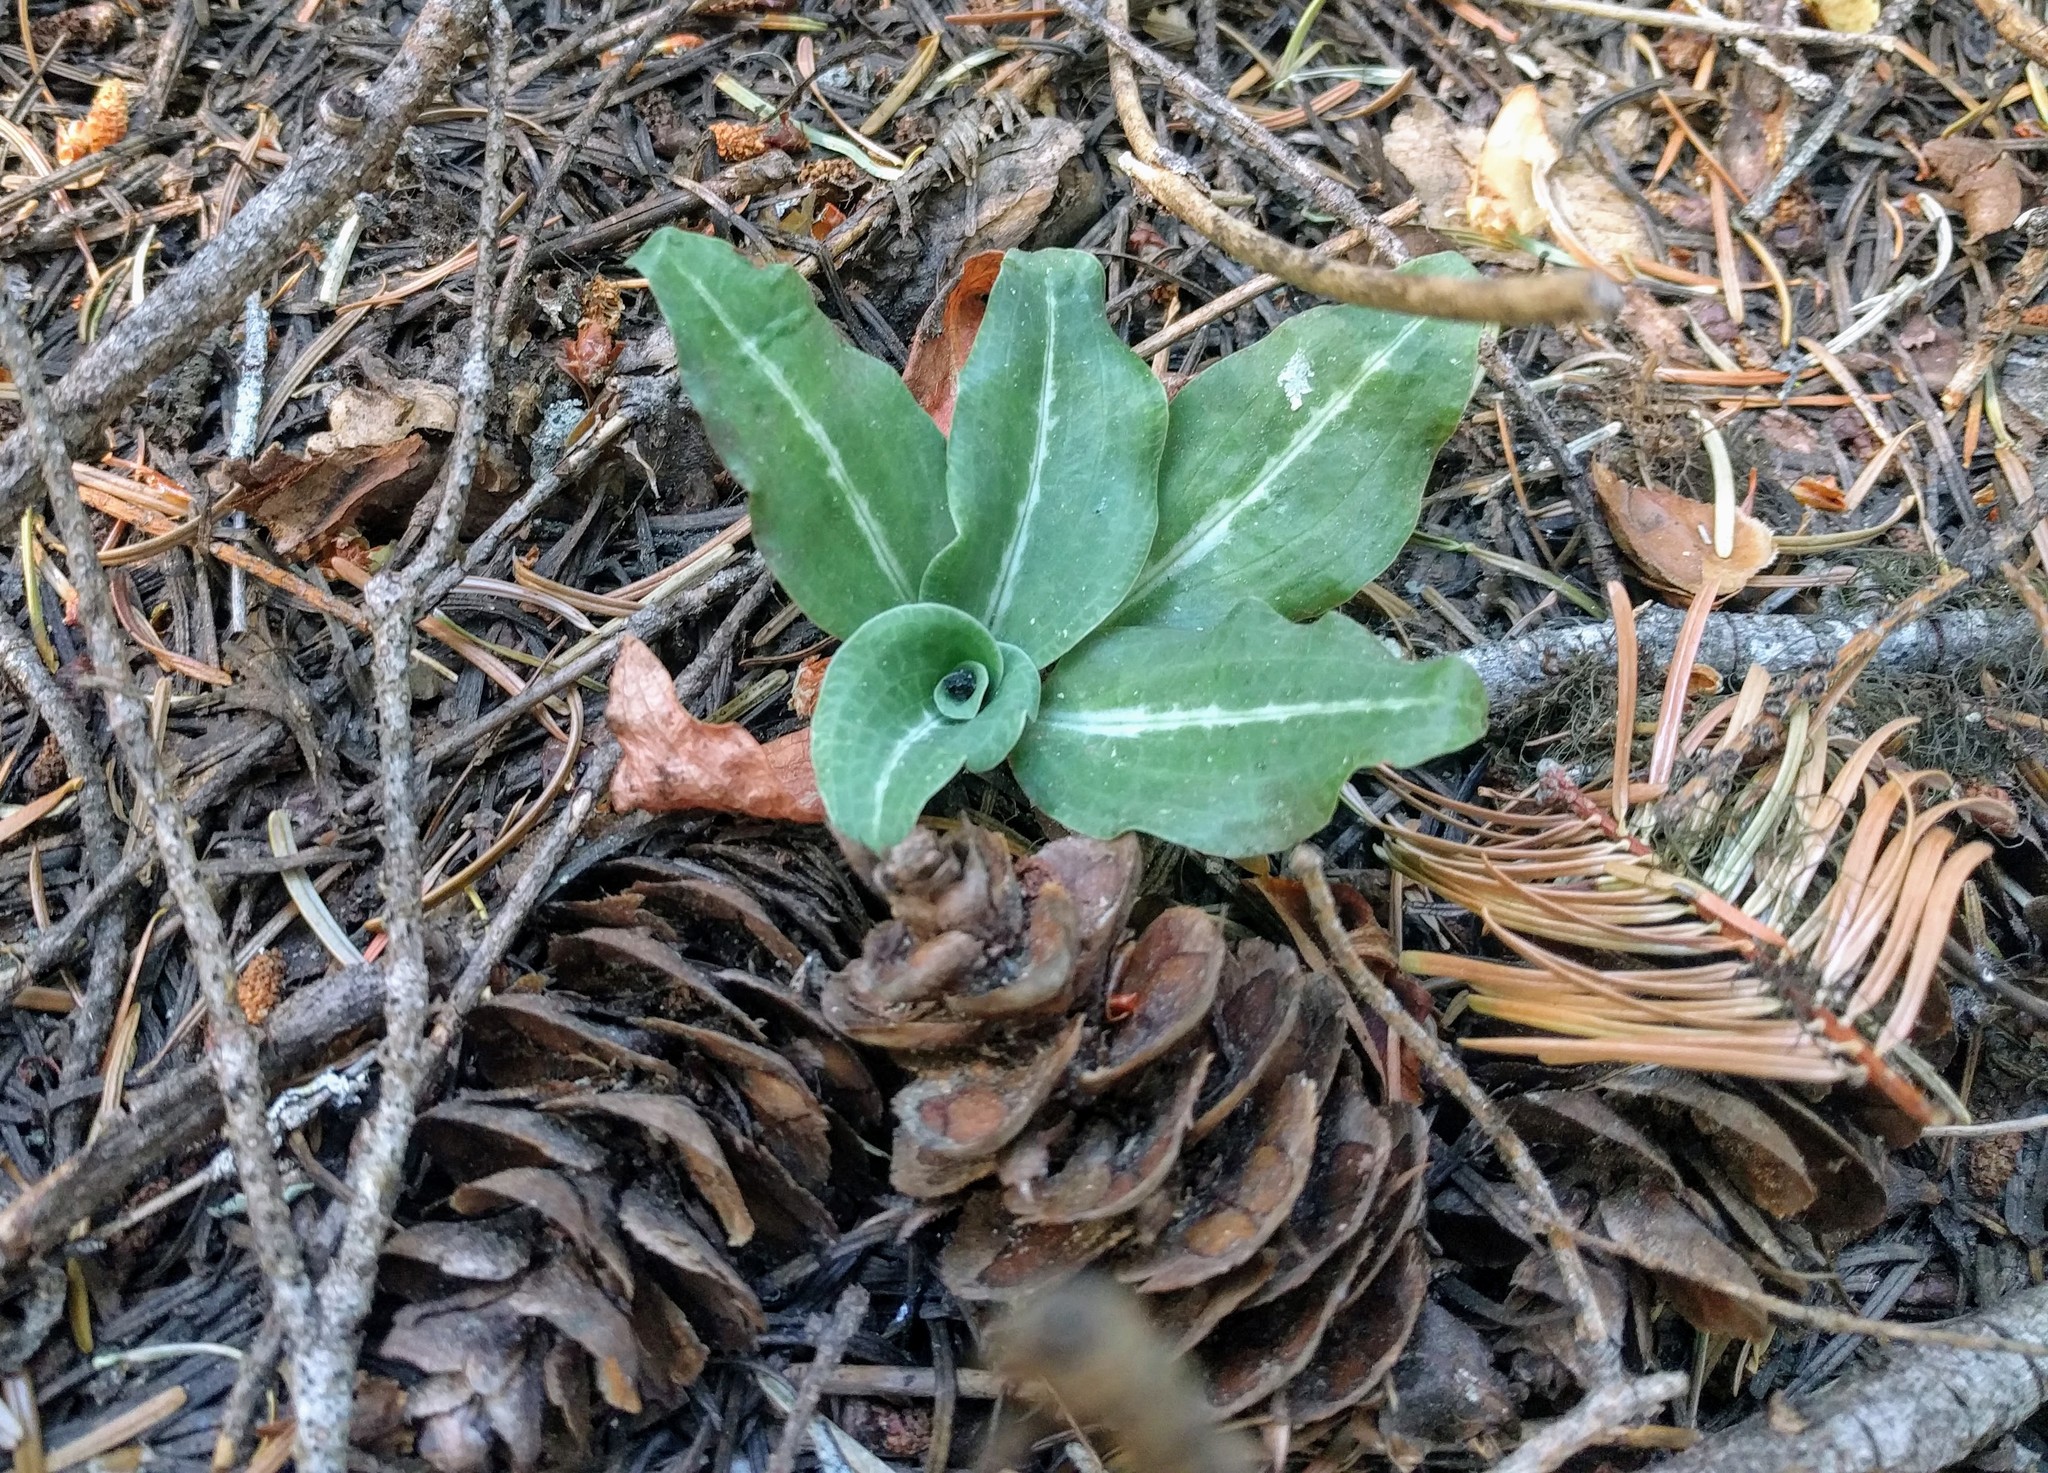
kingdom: Plantae
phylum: Tracheophyta
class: Liliopsida
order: Asparagales
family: Orchidaceae
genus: Goodyera
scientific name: Goodyera oblongifolia
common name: Giant rattlesnake-plantain
